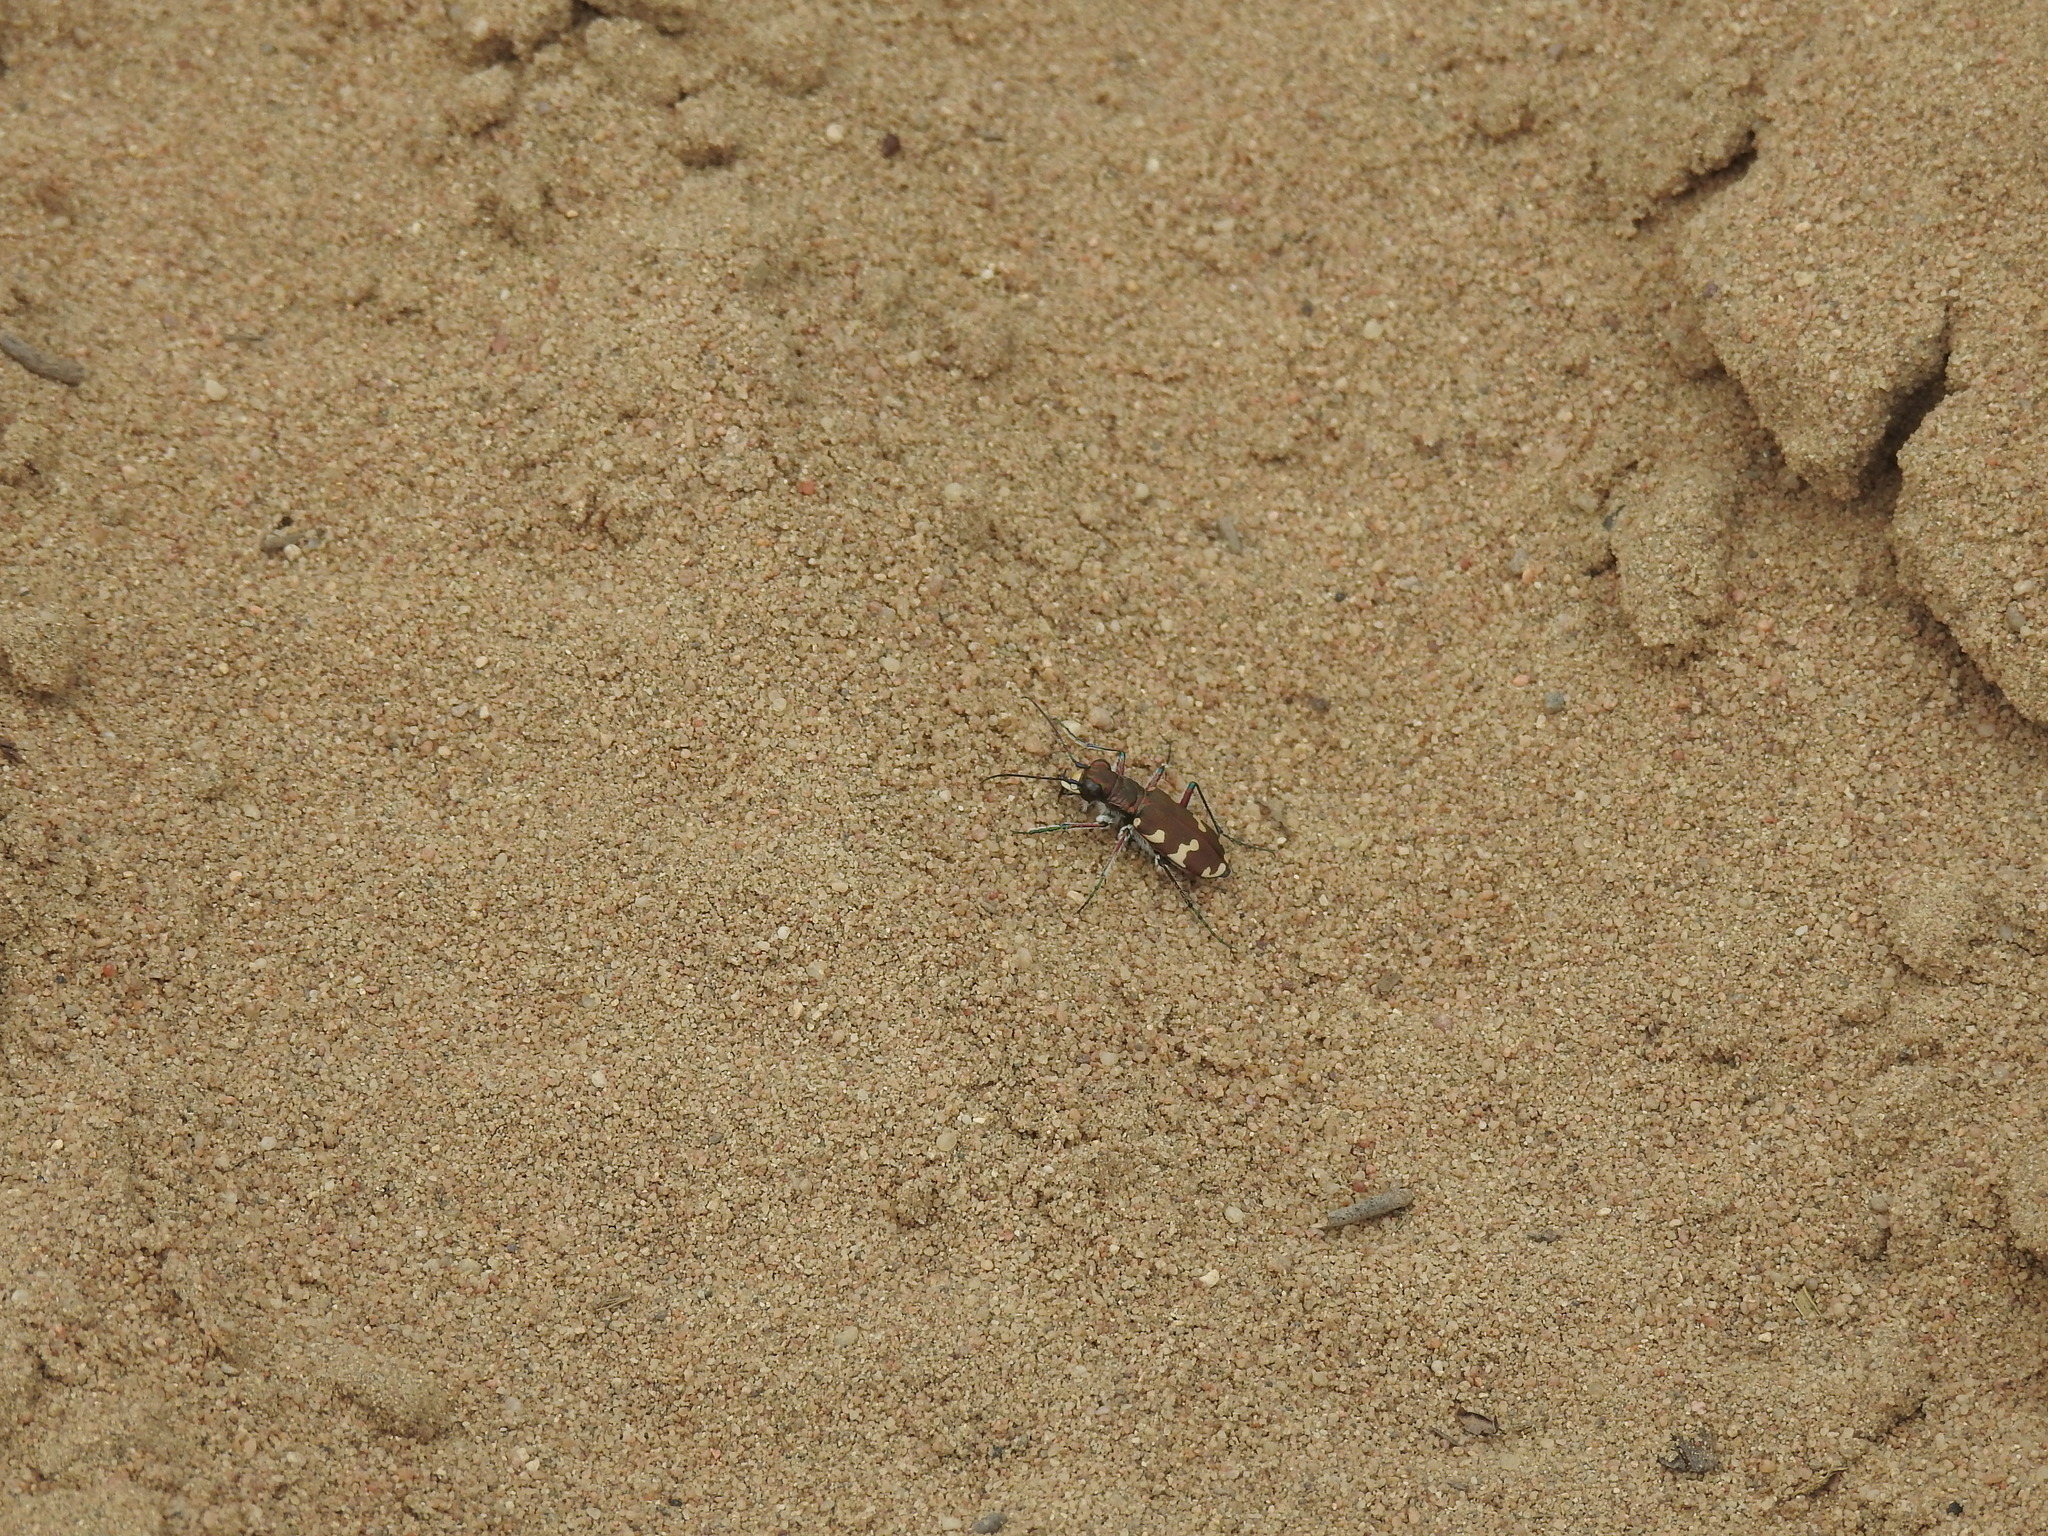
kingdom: Animalia
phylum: Arthropoda
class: Insecta
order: Coleoptera
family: Carabidae
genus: Cicindela
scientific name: Cicindela hybrida
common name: Northern dune tiger beetle
